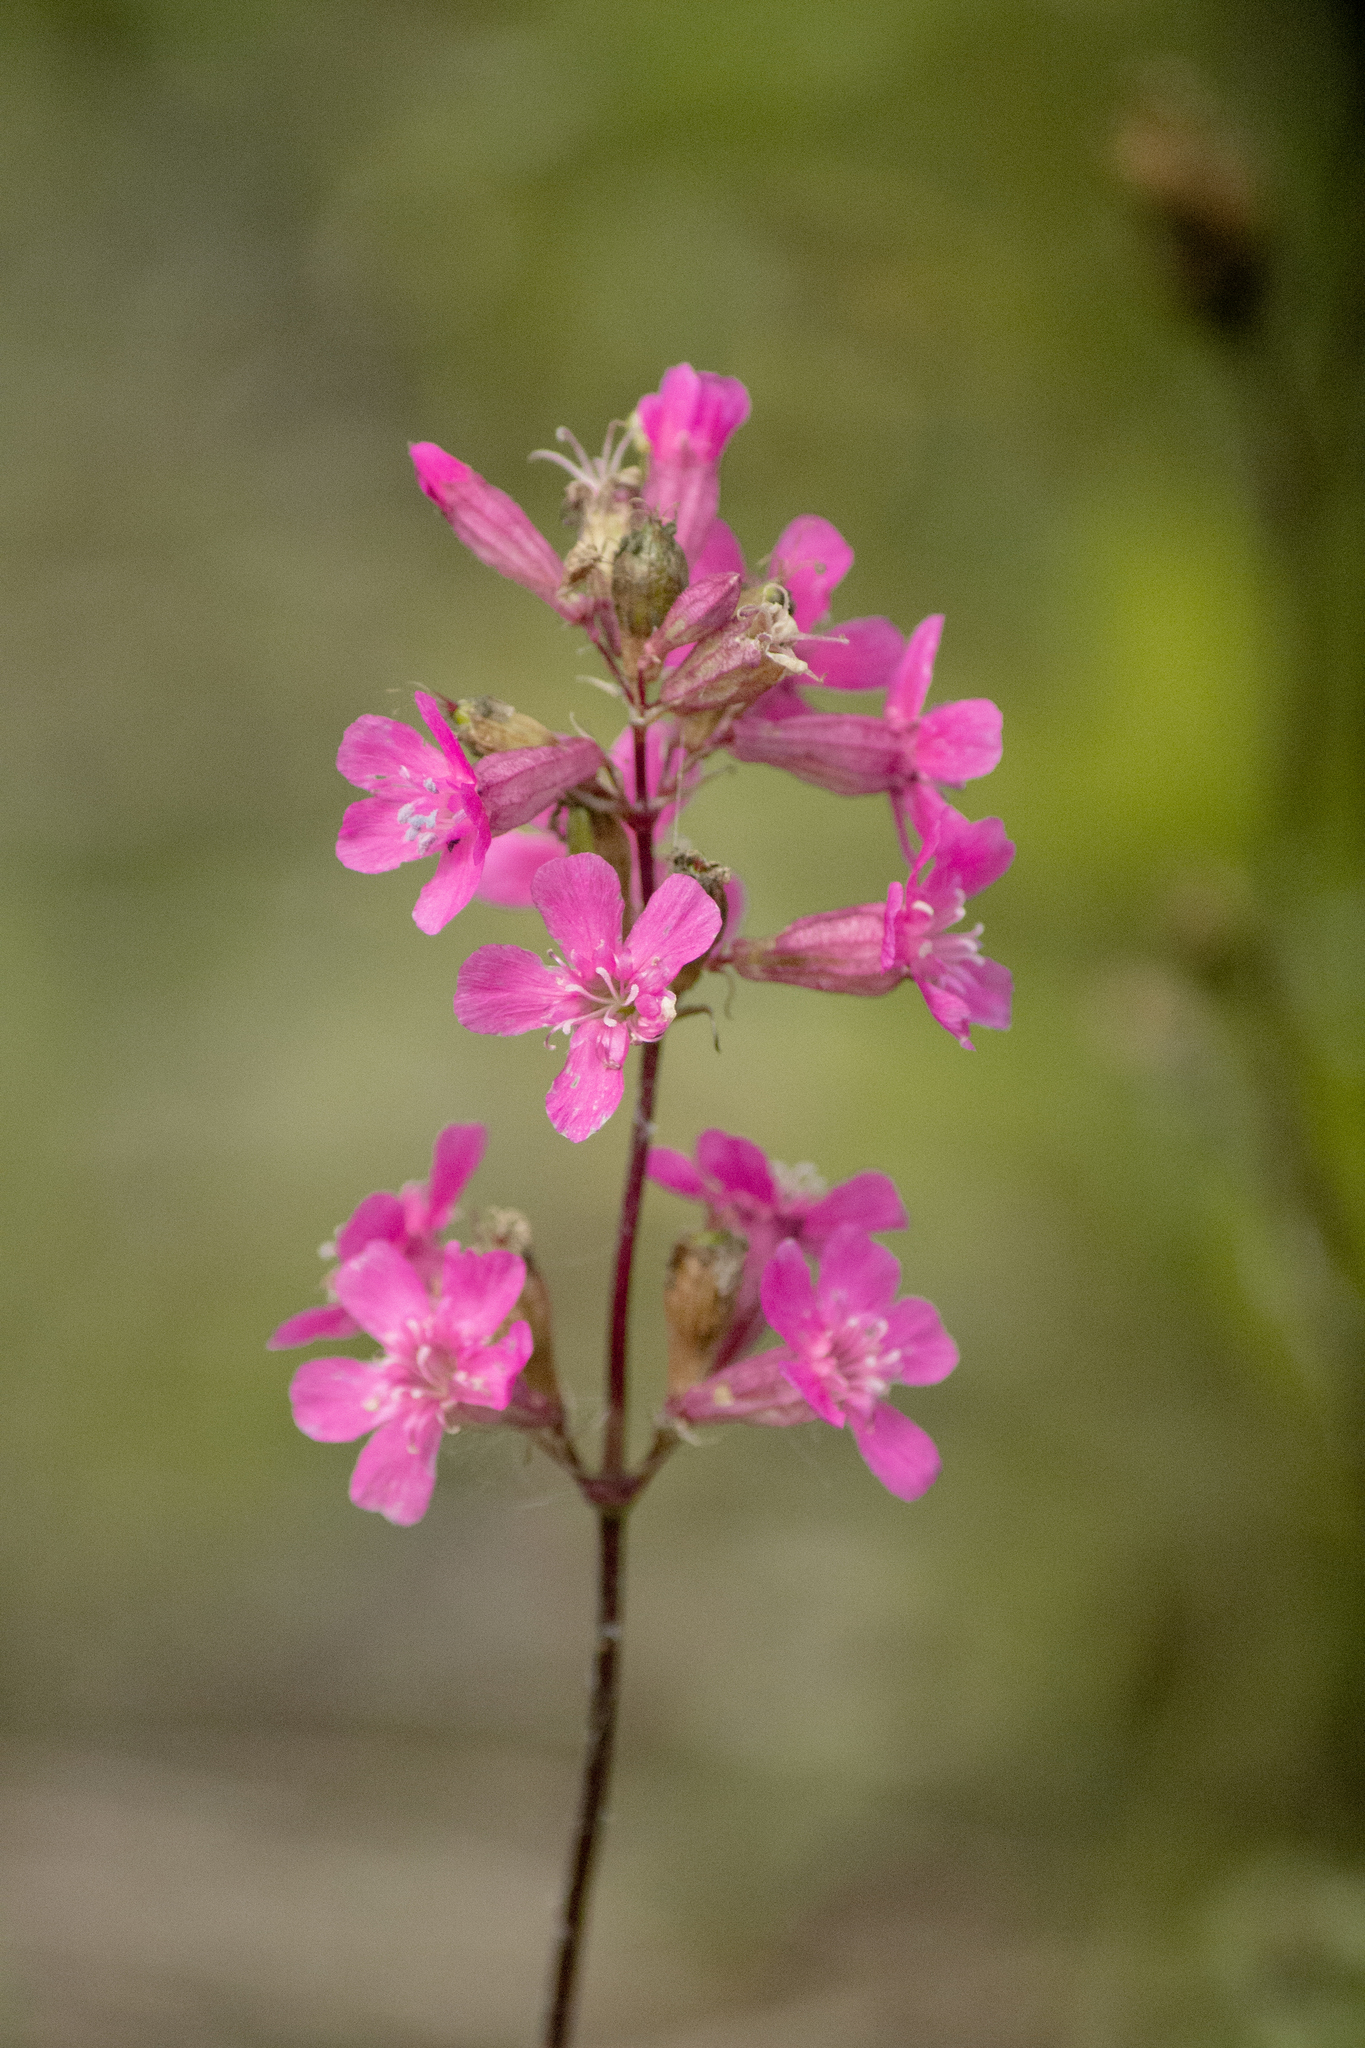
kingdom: Plantae
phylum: Tracheophyta
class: Magnoliopsida
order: Caryophyllales
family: Caryophyllaceae
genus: Viscaria
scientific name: Viscaria vulgaris
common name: Clammy campion
